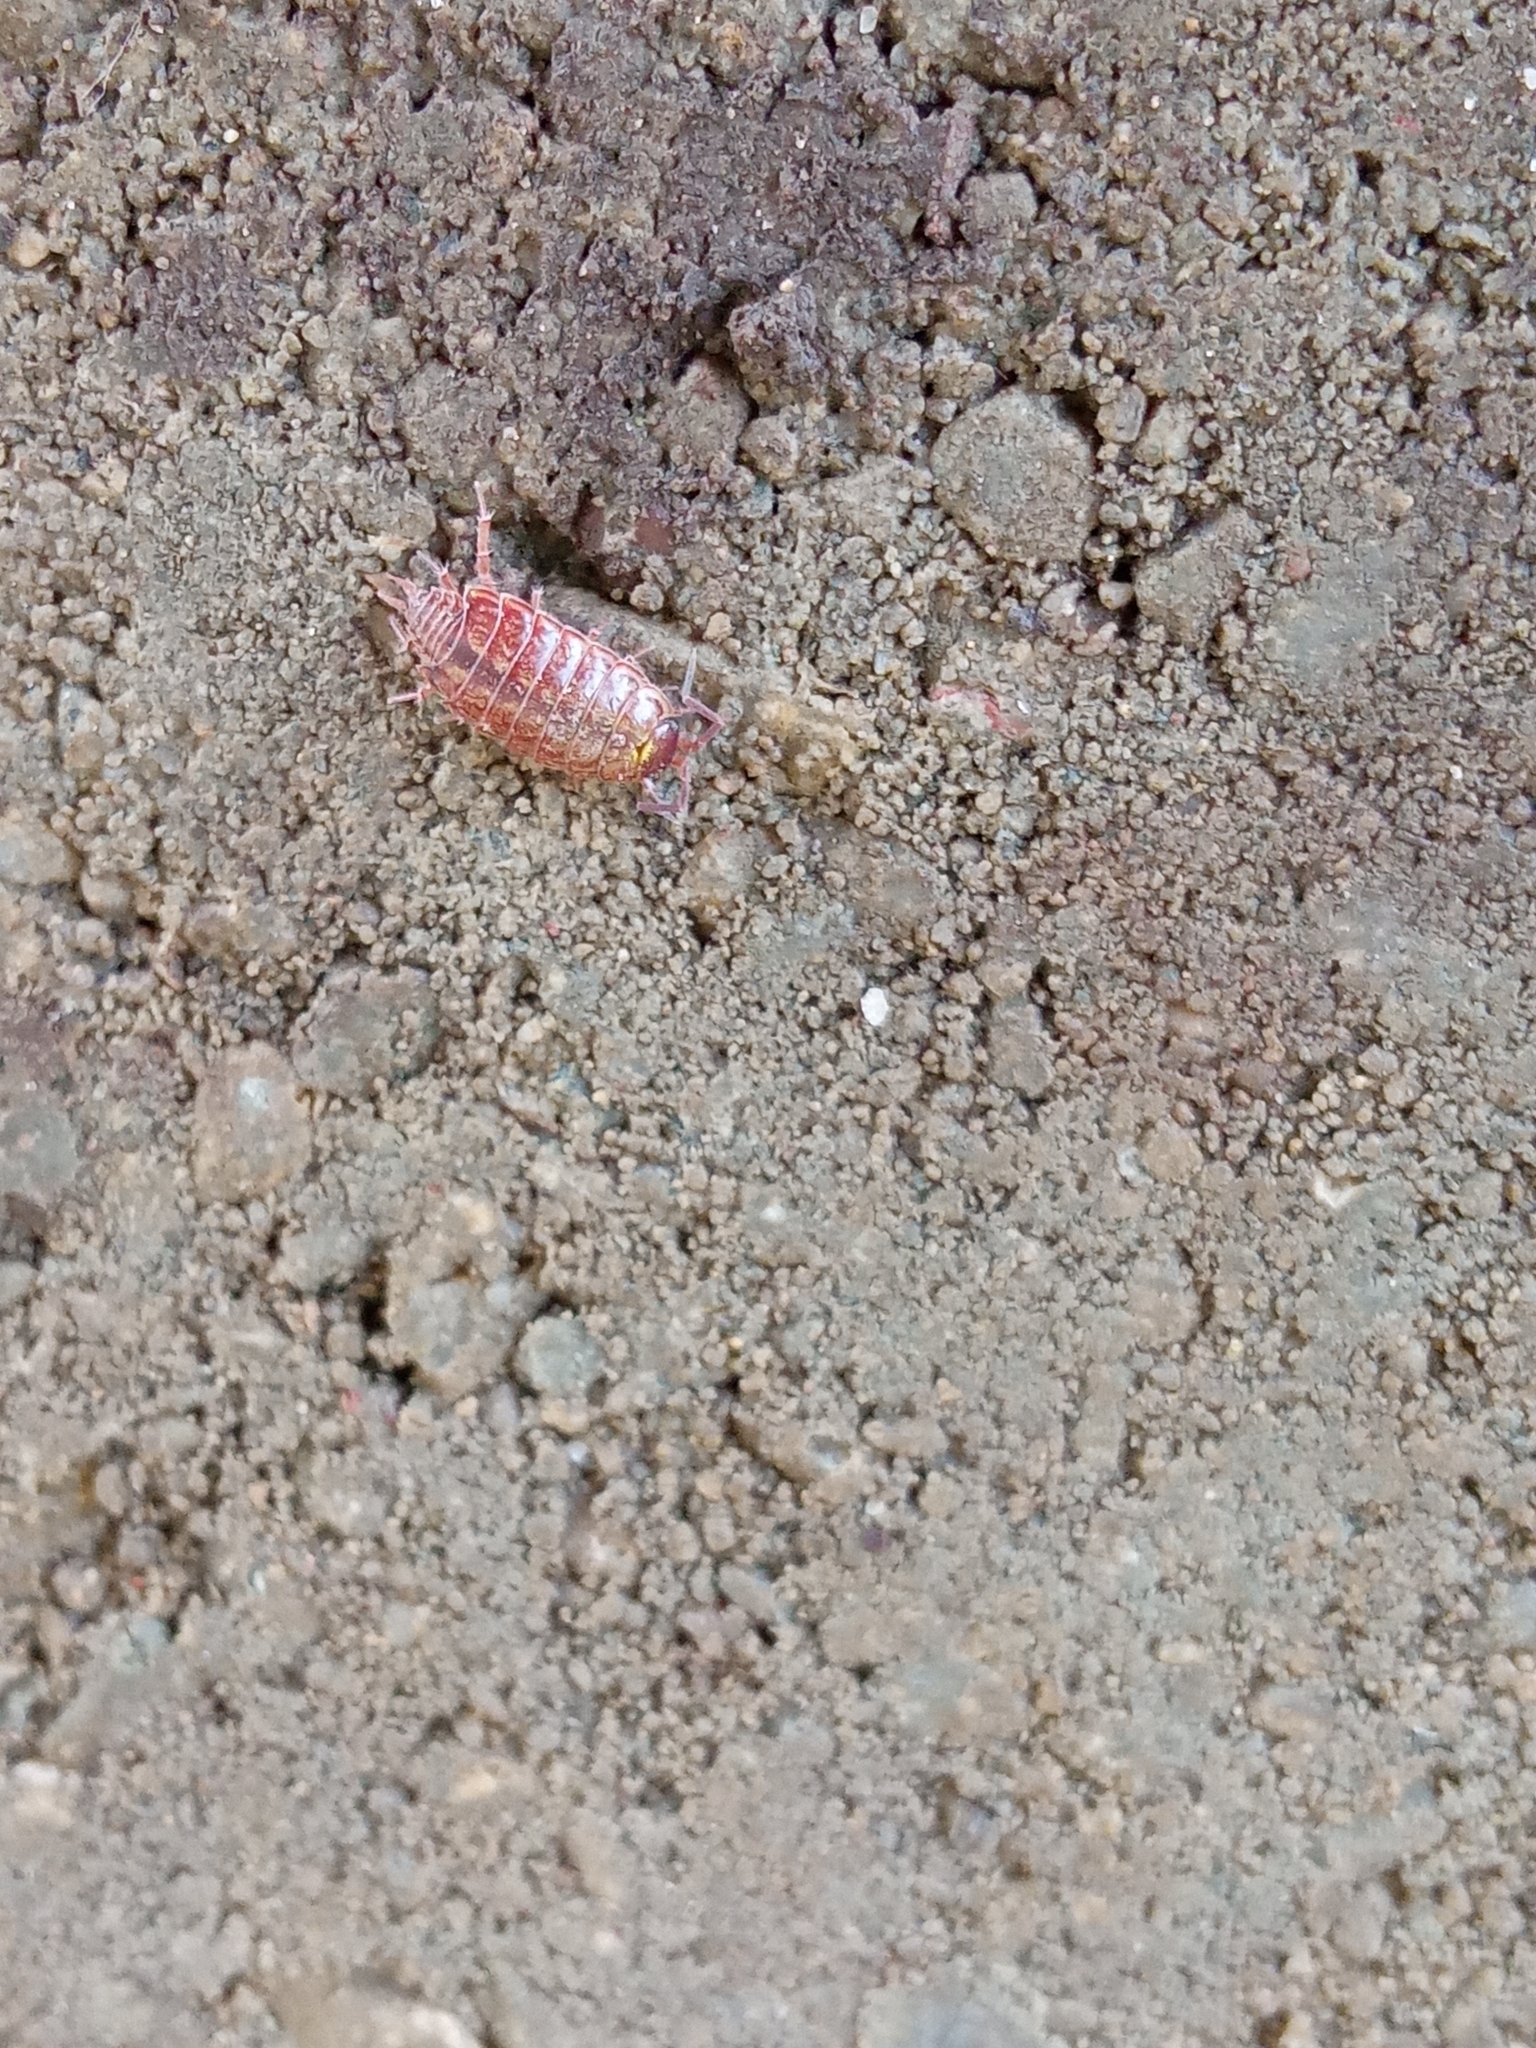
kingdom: Animalia
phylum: Arthropoda
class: Malacostraca
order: Isopoda
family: Philosciidae
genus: Philoscia
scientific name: Philoscia muscorum
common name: Common striped woodlouse
